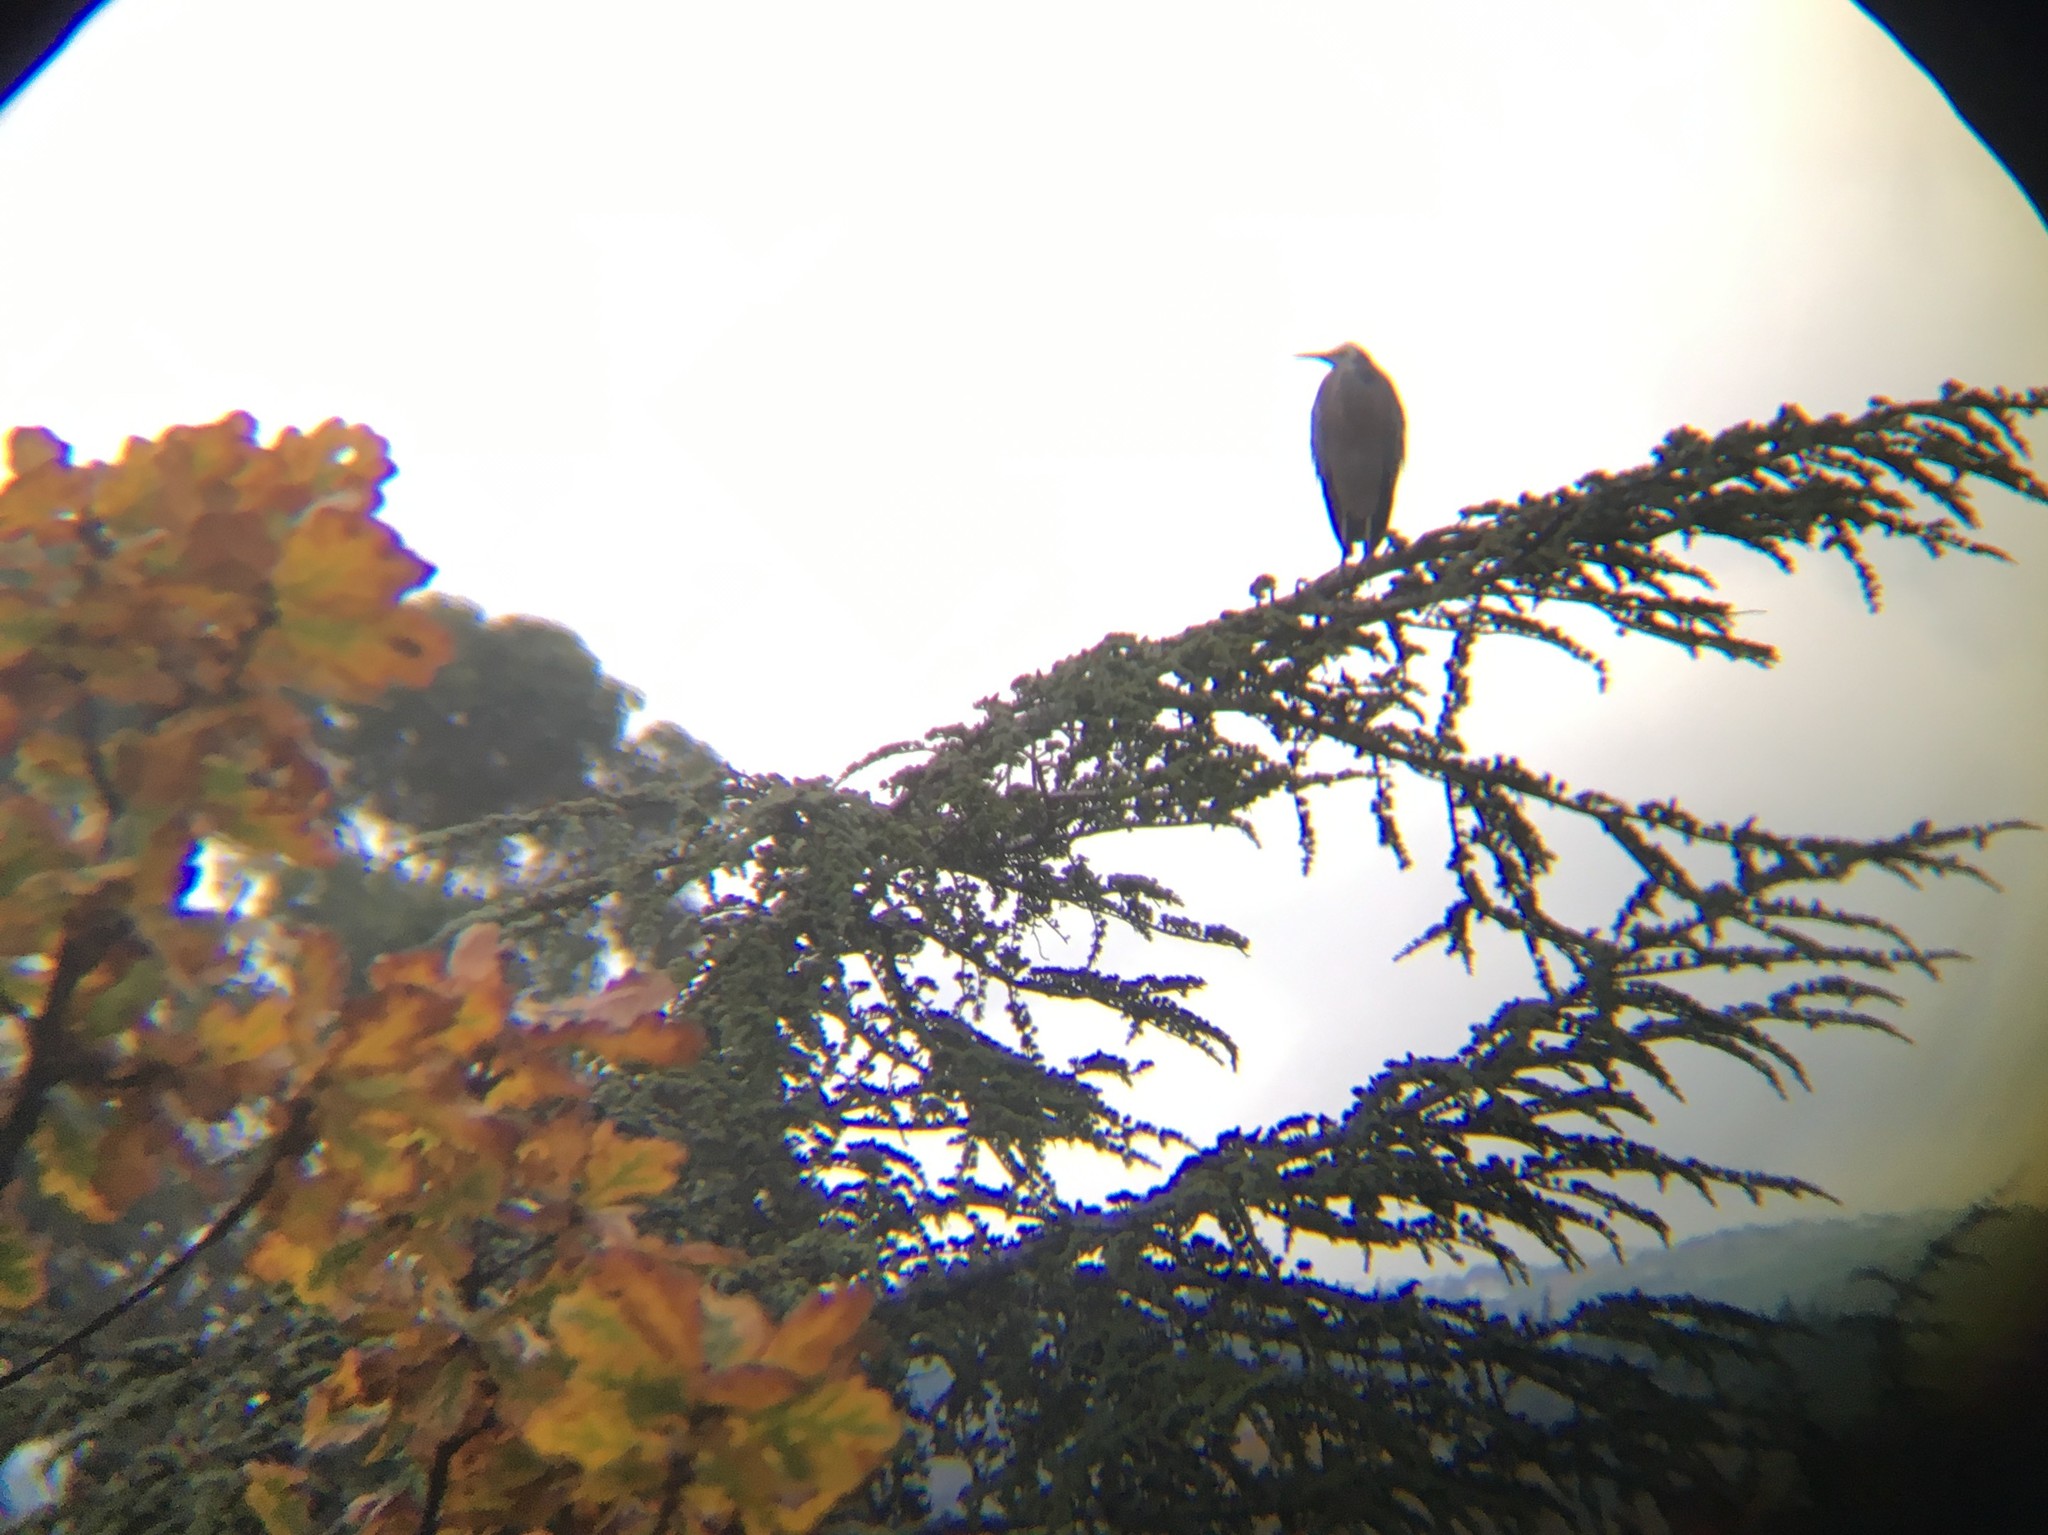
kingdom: Animalia
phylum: Chordata
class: Aves
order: Pelecaniformes
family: Ardeidae
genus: Egretta
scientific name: Egretta novaehollandiae
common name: White-faced heron
